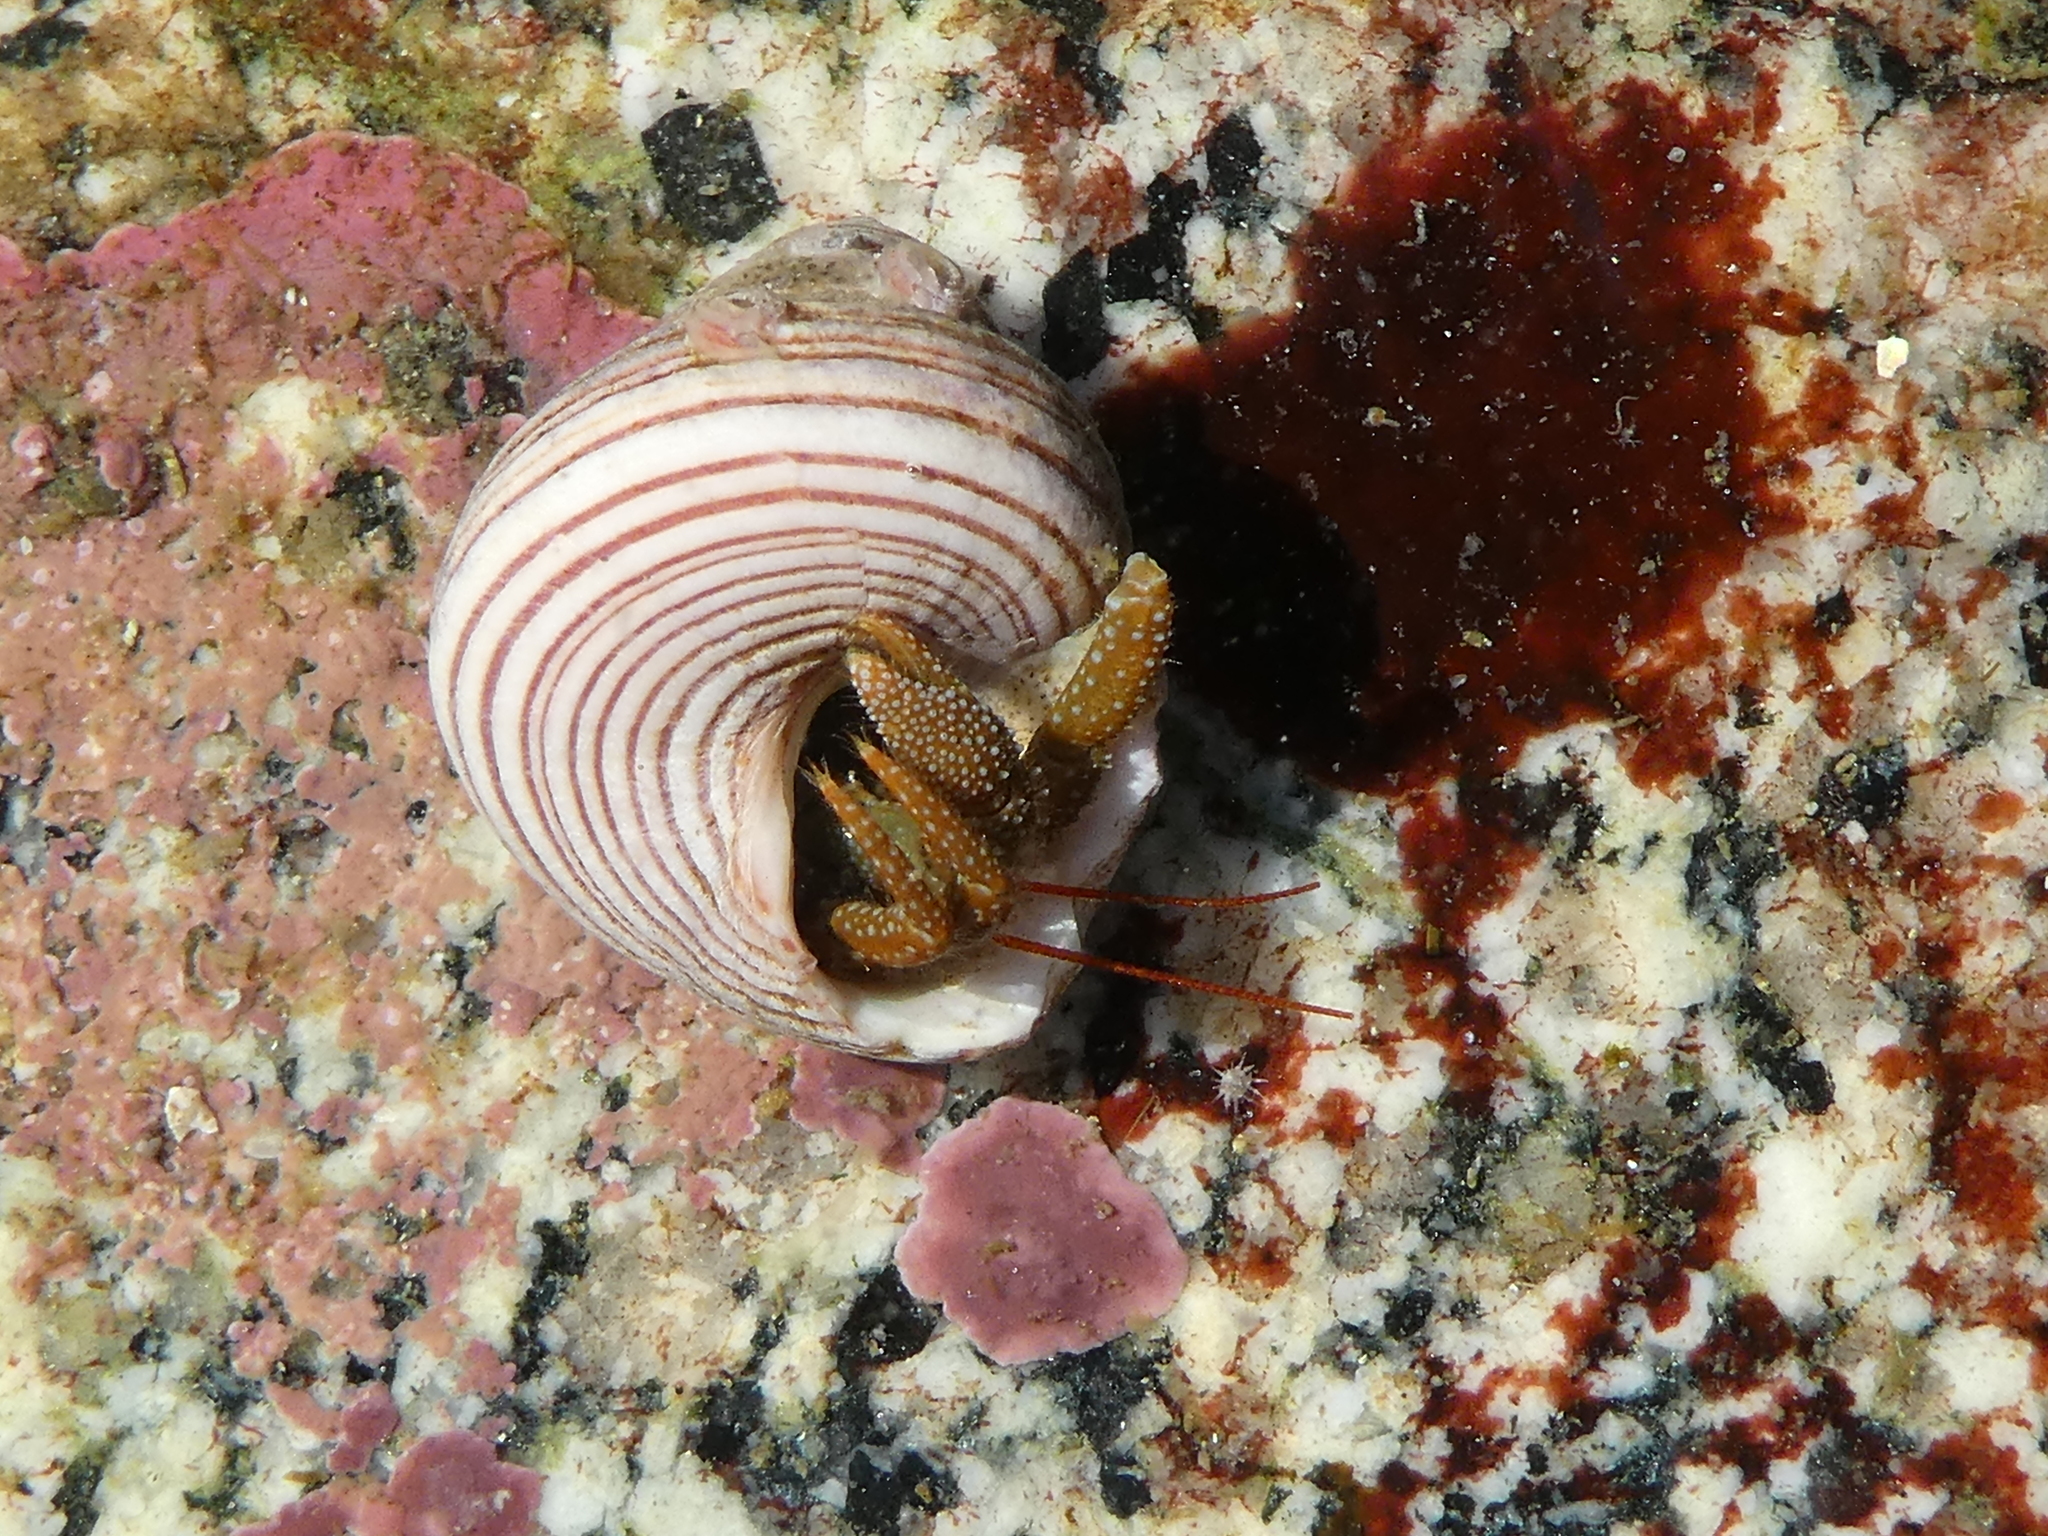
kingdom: Animalia
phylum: Arthropoda
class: Malacostraca
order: Decapoda
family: Paguridae
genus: Pagurus
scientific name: Pagurus granosimanus
